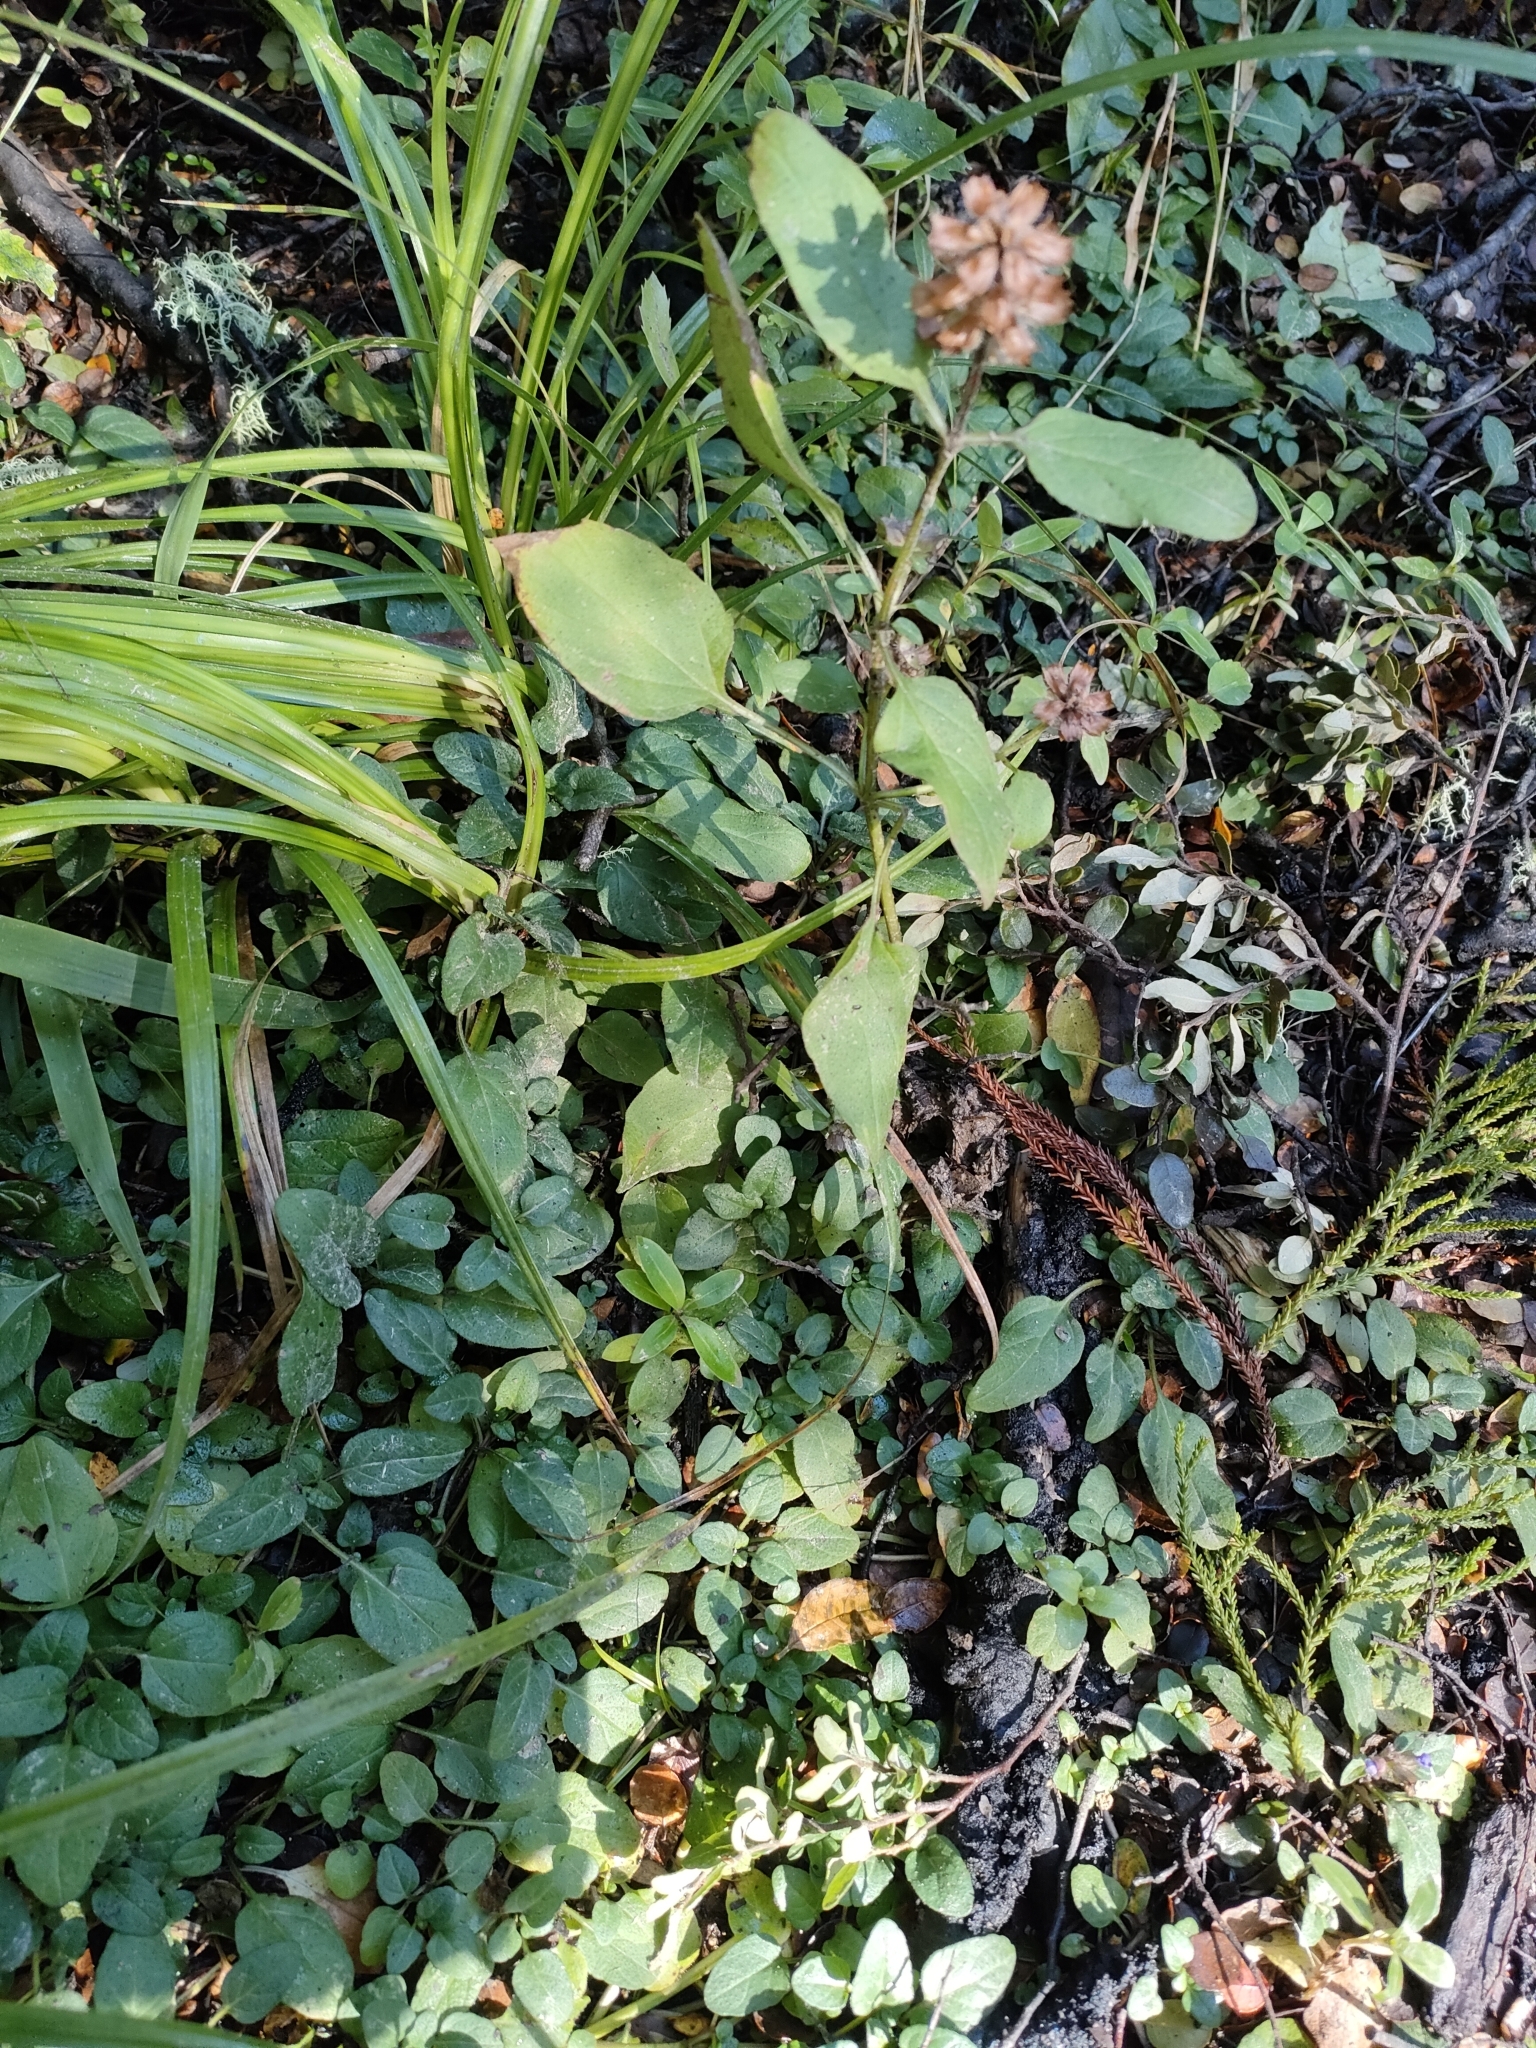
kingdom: Plantae
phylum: Tracheophyta
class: Magnoliopsida
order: Lamiales
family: Lamiaceae
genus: Prunella
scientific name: Prunella vulgaris
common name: Heal-all
